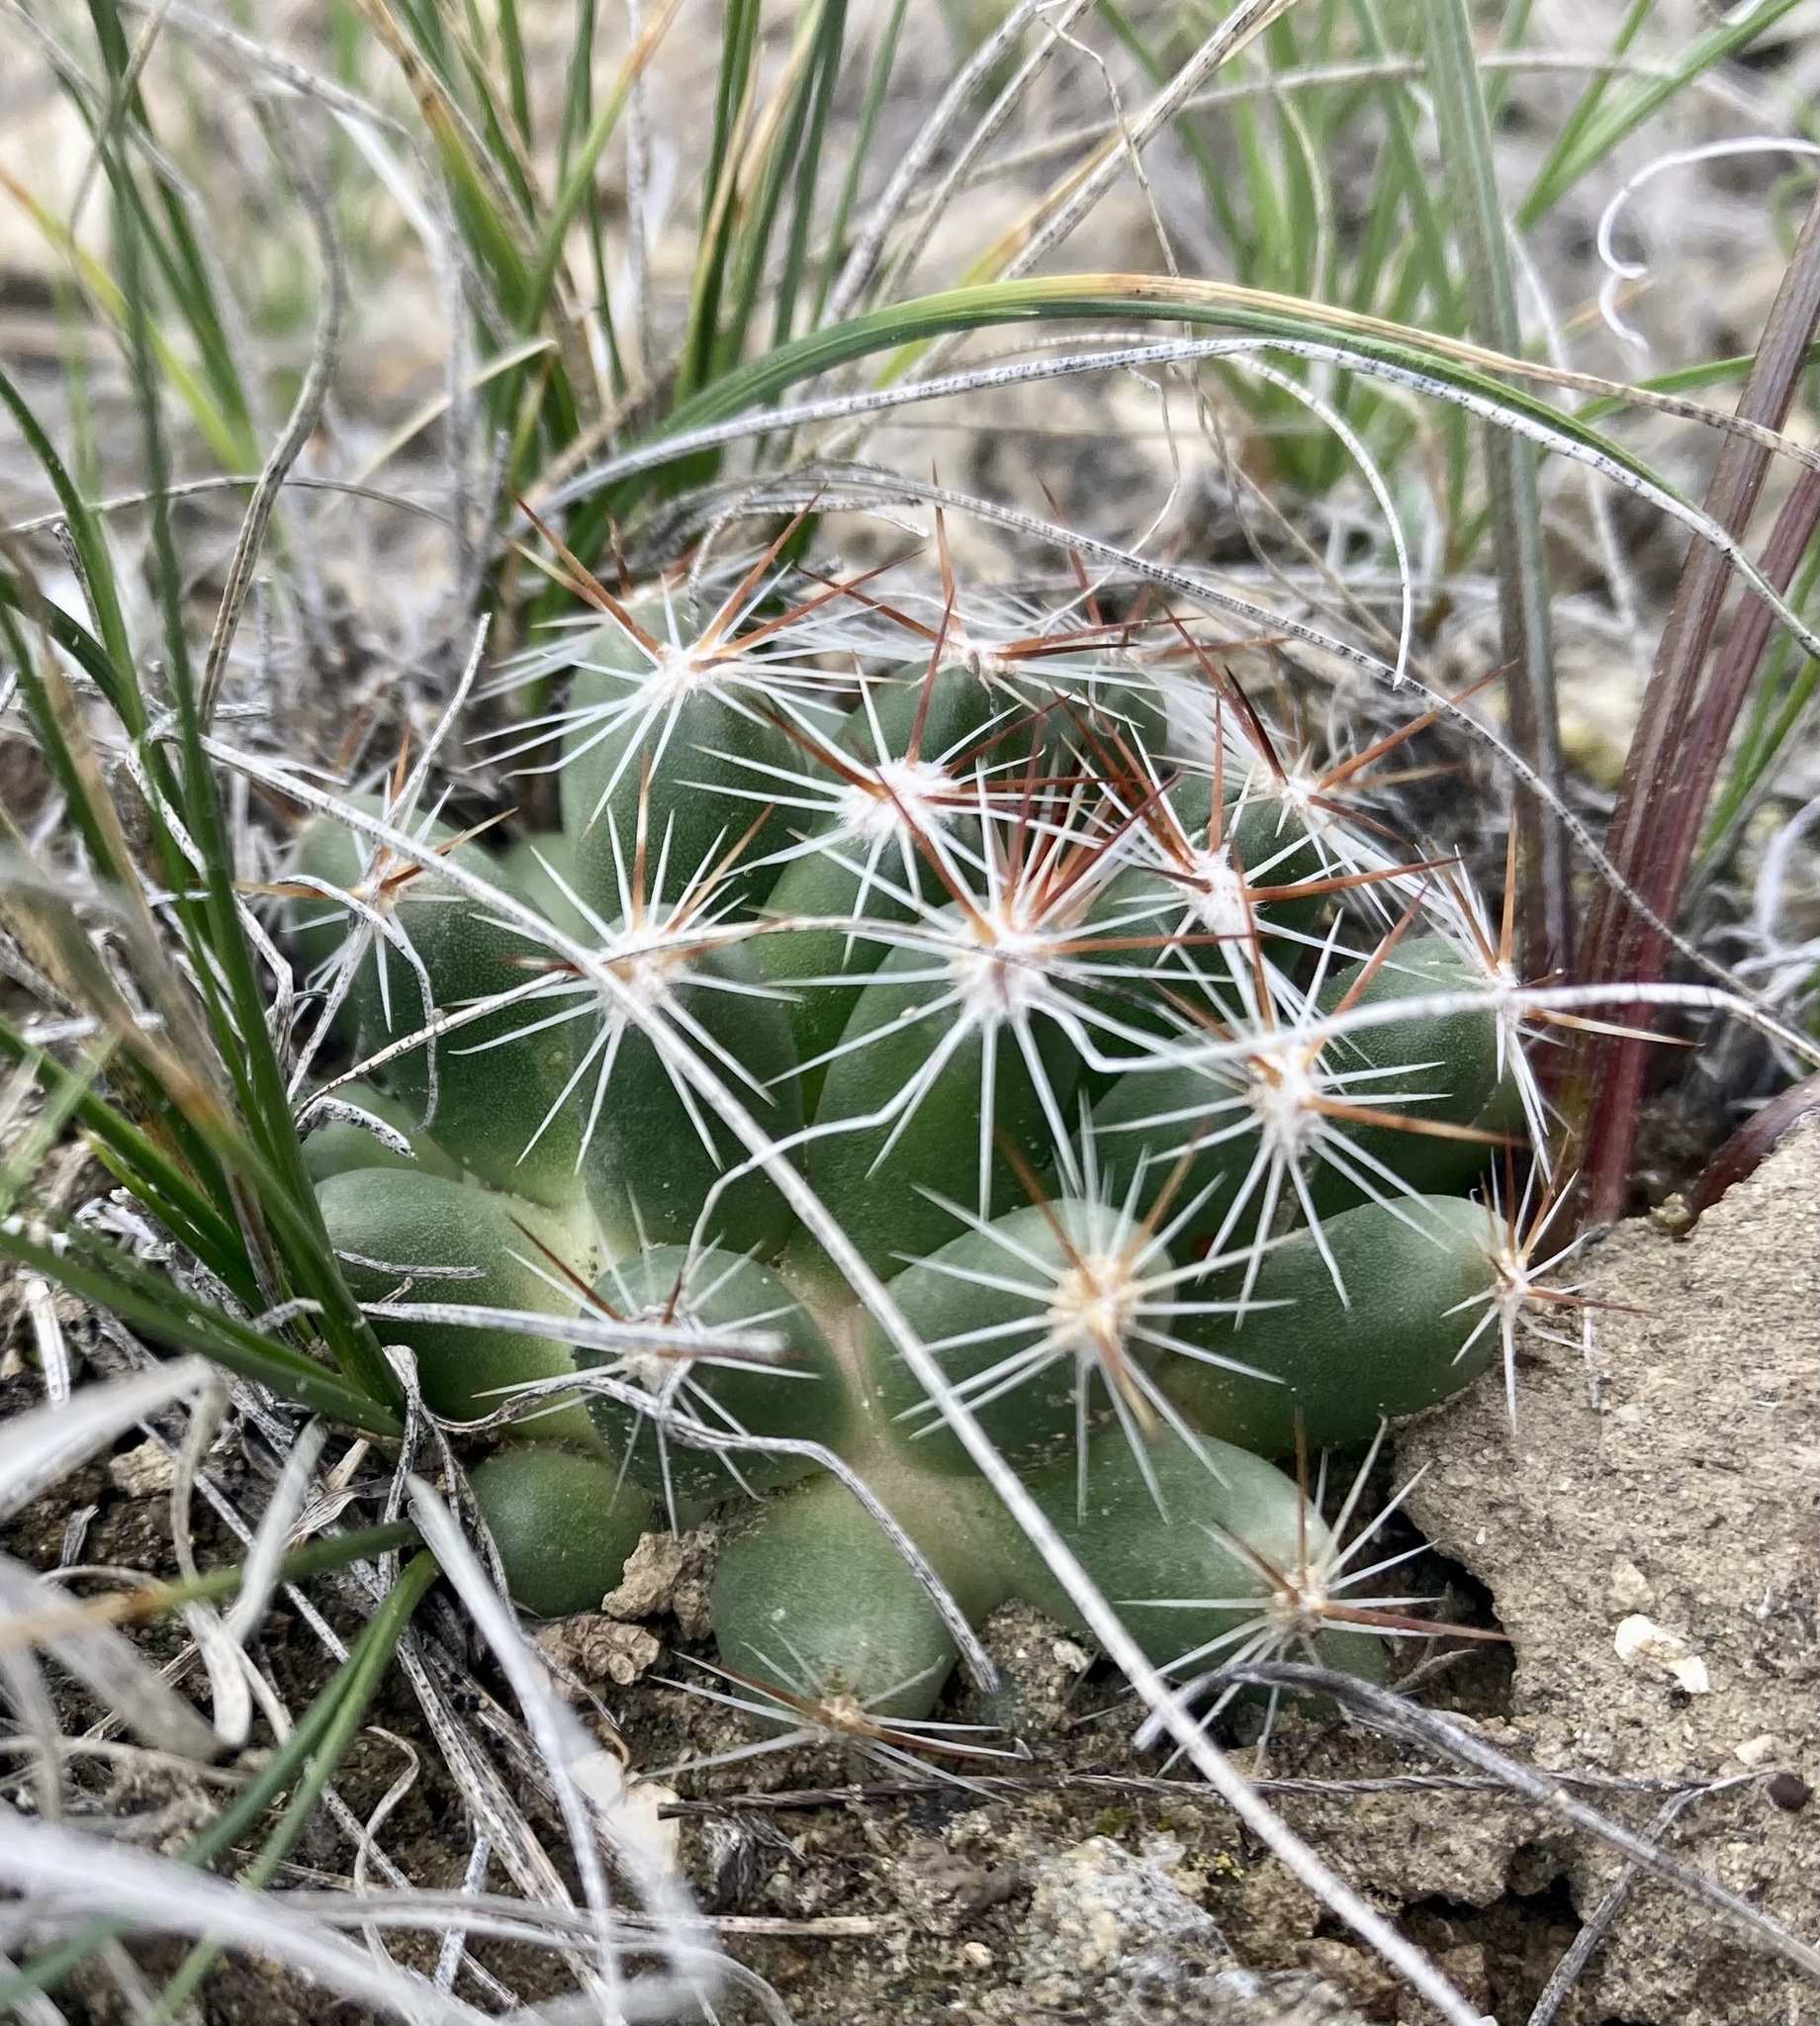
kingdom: Plantae
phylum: Tracheophyta
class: Magnoliopsida
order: Caryophyllales
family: Cactaceae
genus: Pelecyphora
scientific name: Pelecyphora vivipara
